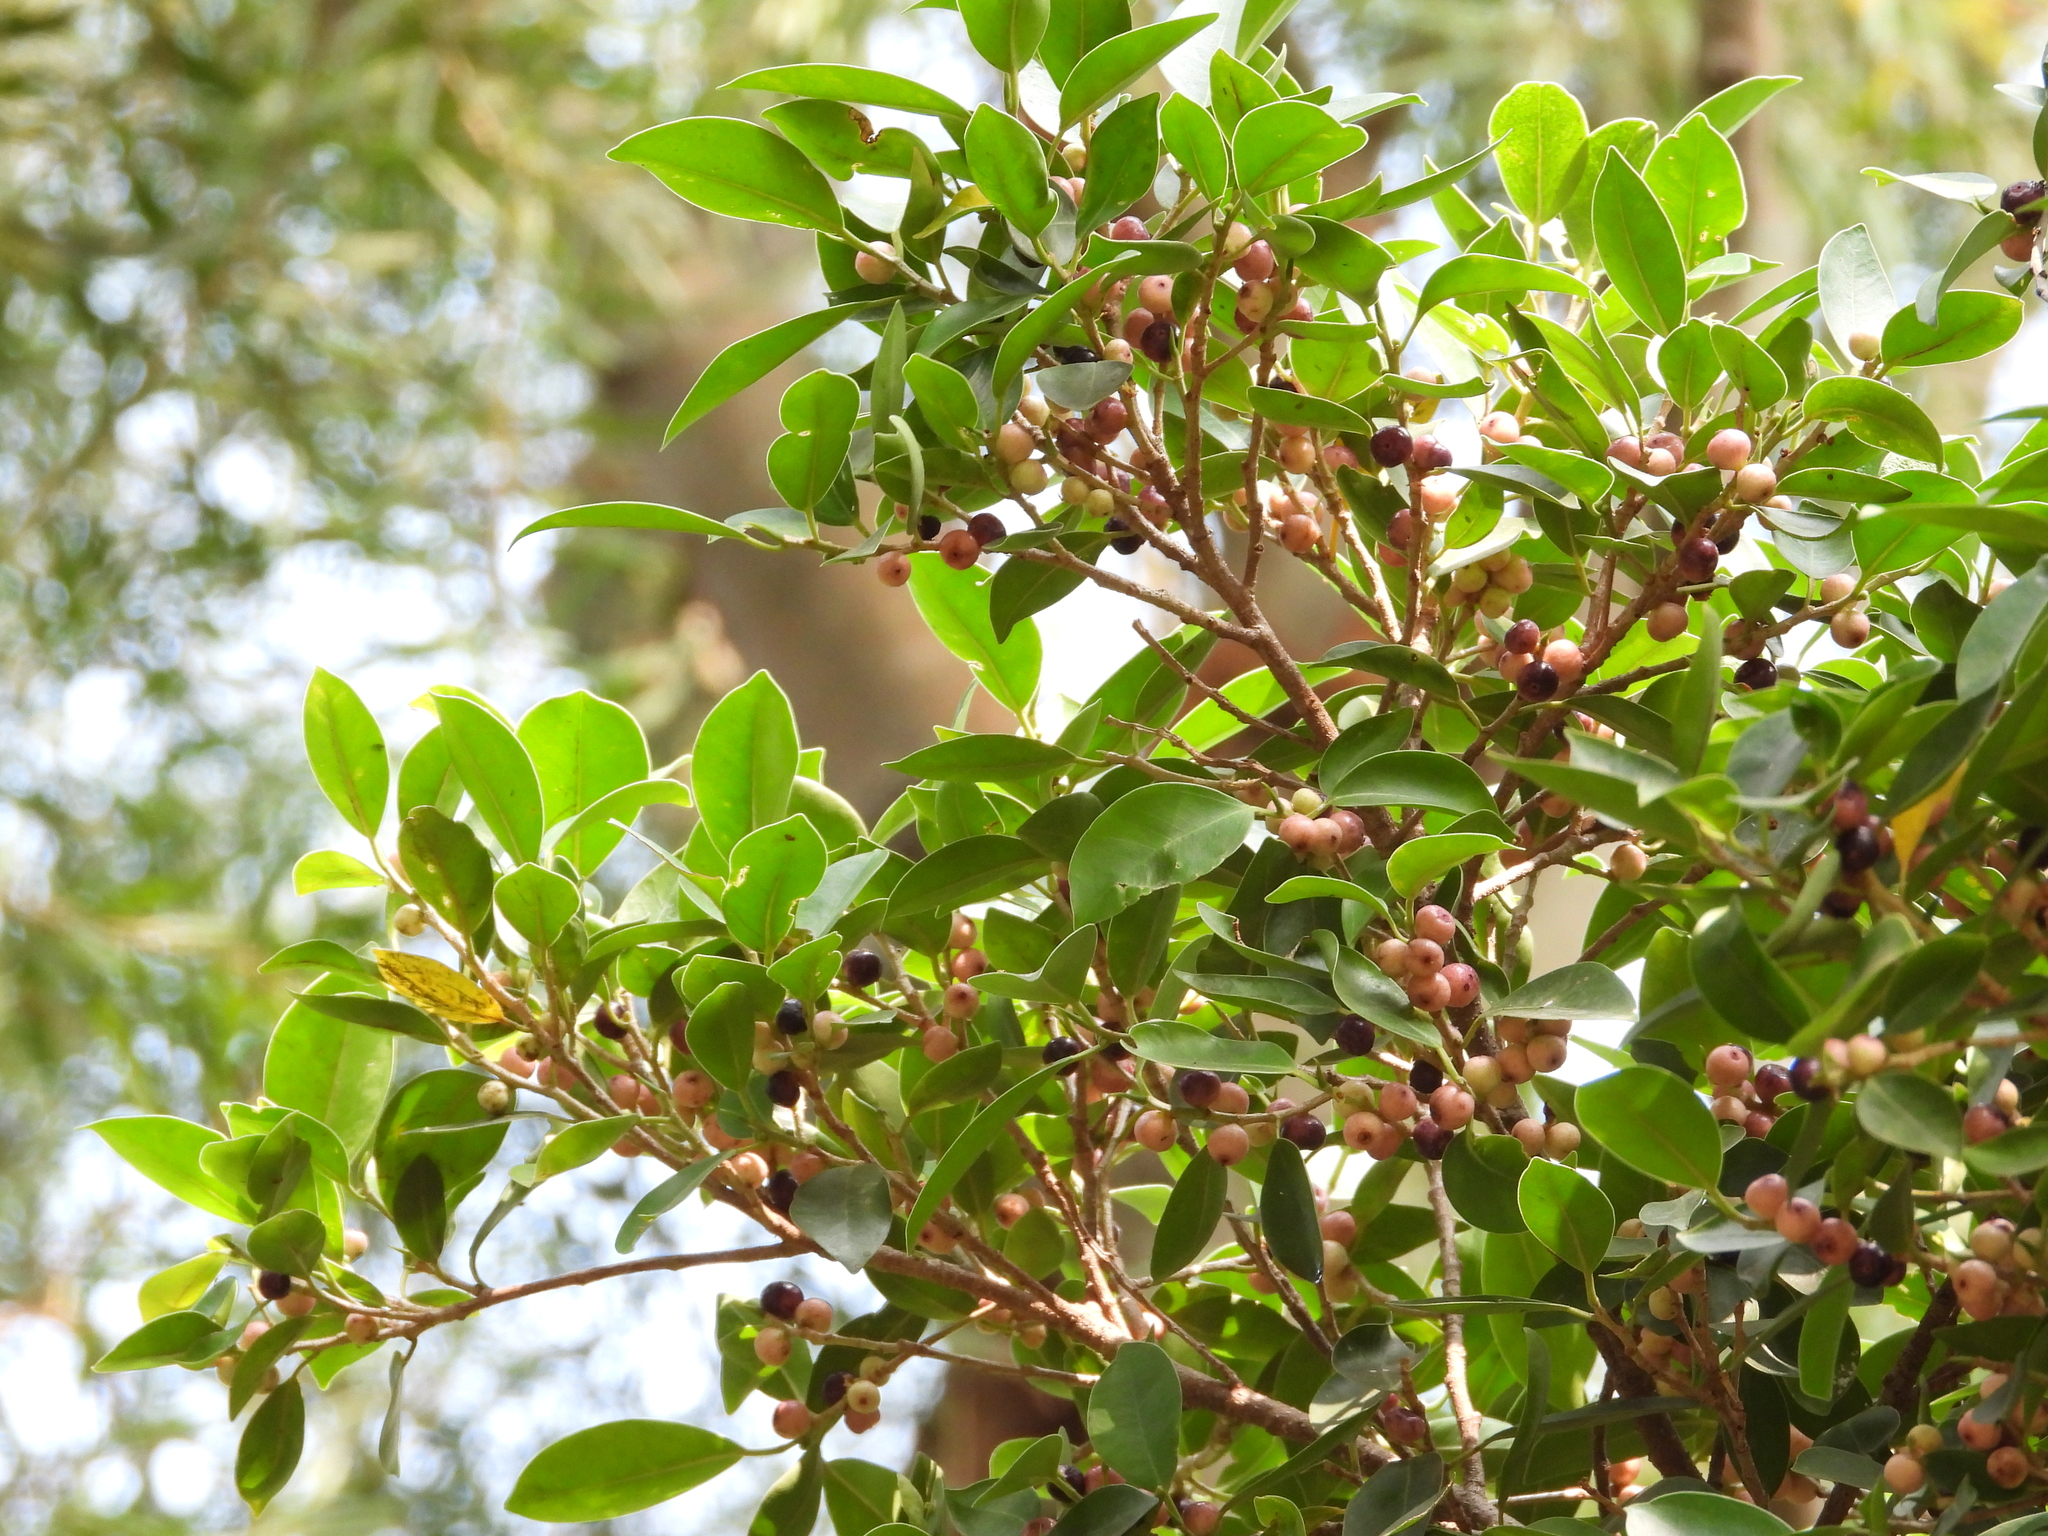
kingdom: Plantae
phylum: Tracheophyta
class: Magnoliopsida
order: Rosales
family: Moraceae
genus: Ficus
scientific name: Ficus microcarpa
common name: Chinese banyan
